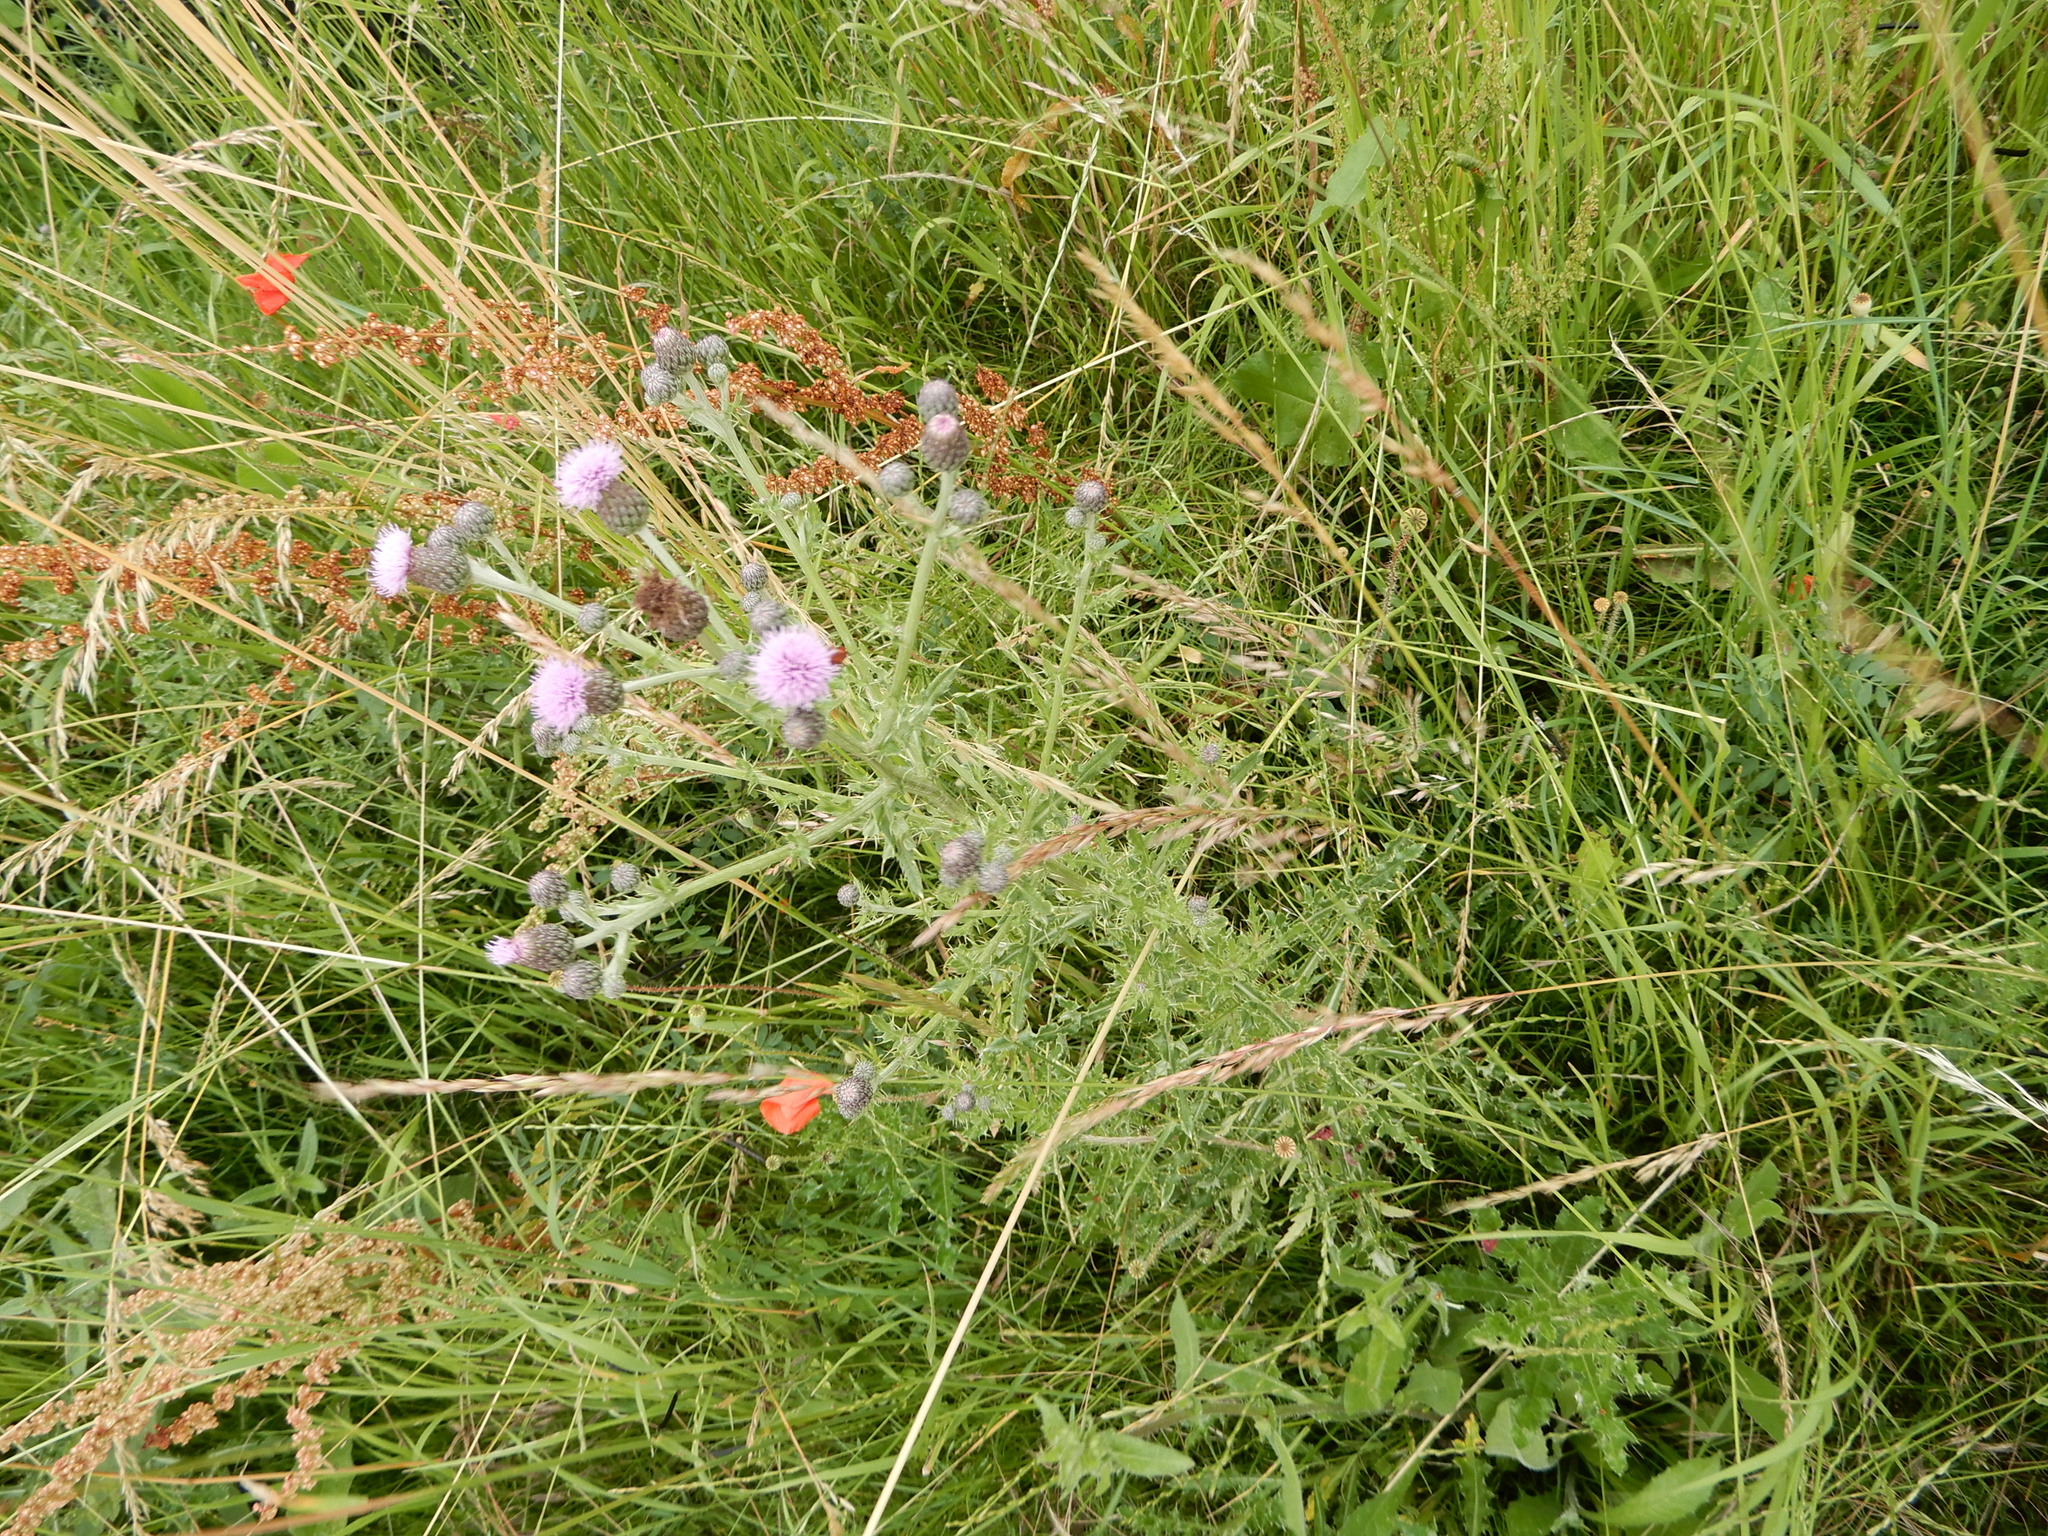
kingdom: Plantae
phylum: Tracheophyta
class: Magnoliopsida
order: Asterales
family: Asteraceae
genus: Cirsium
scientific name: Cirsium arvense
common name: Creeping thistle
